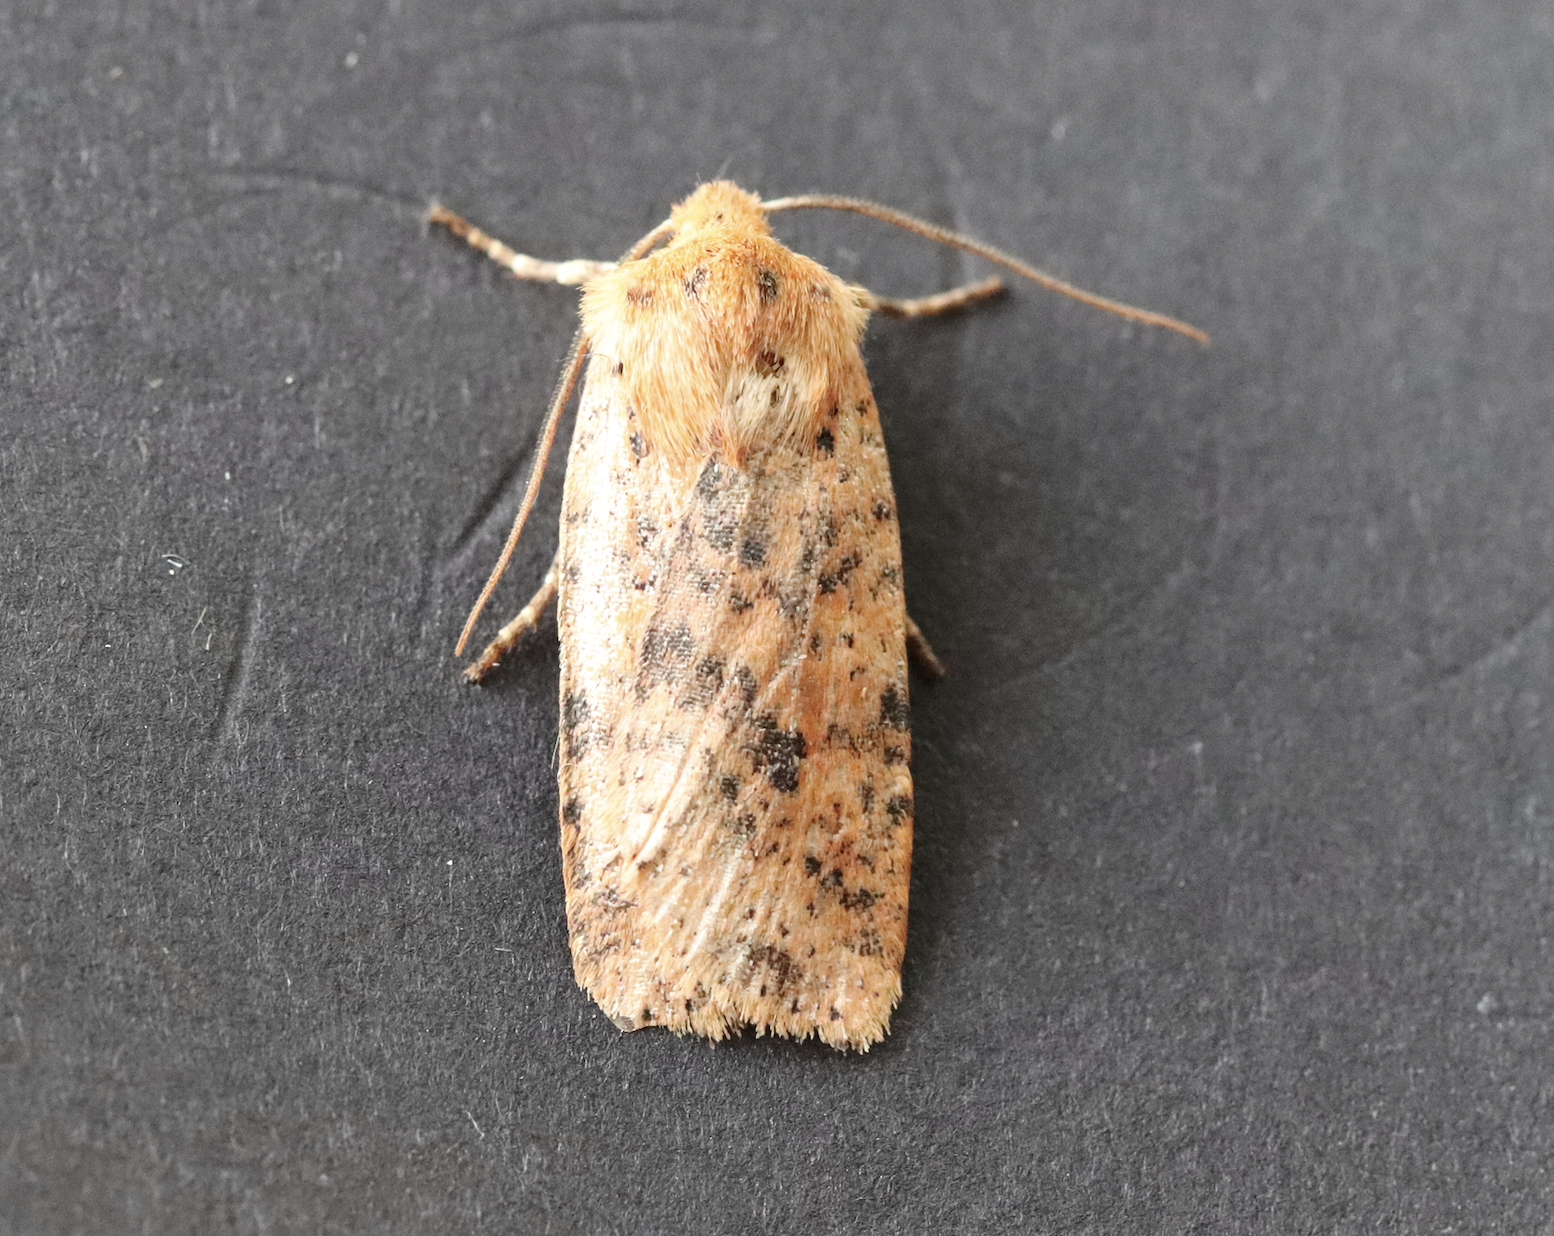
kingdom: Animalia
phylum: Arthropoda
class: Insecta
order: Lepidoptera
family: Noctuidae
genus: Conistra
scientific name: Conistra rubiginea
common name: Dotted chestnut
